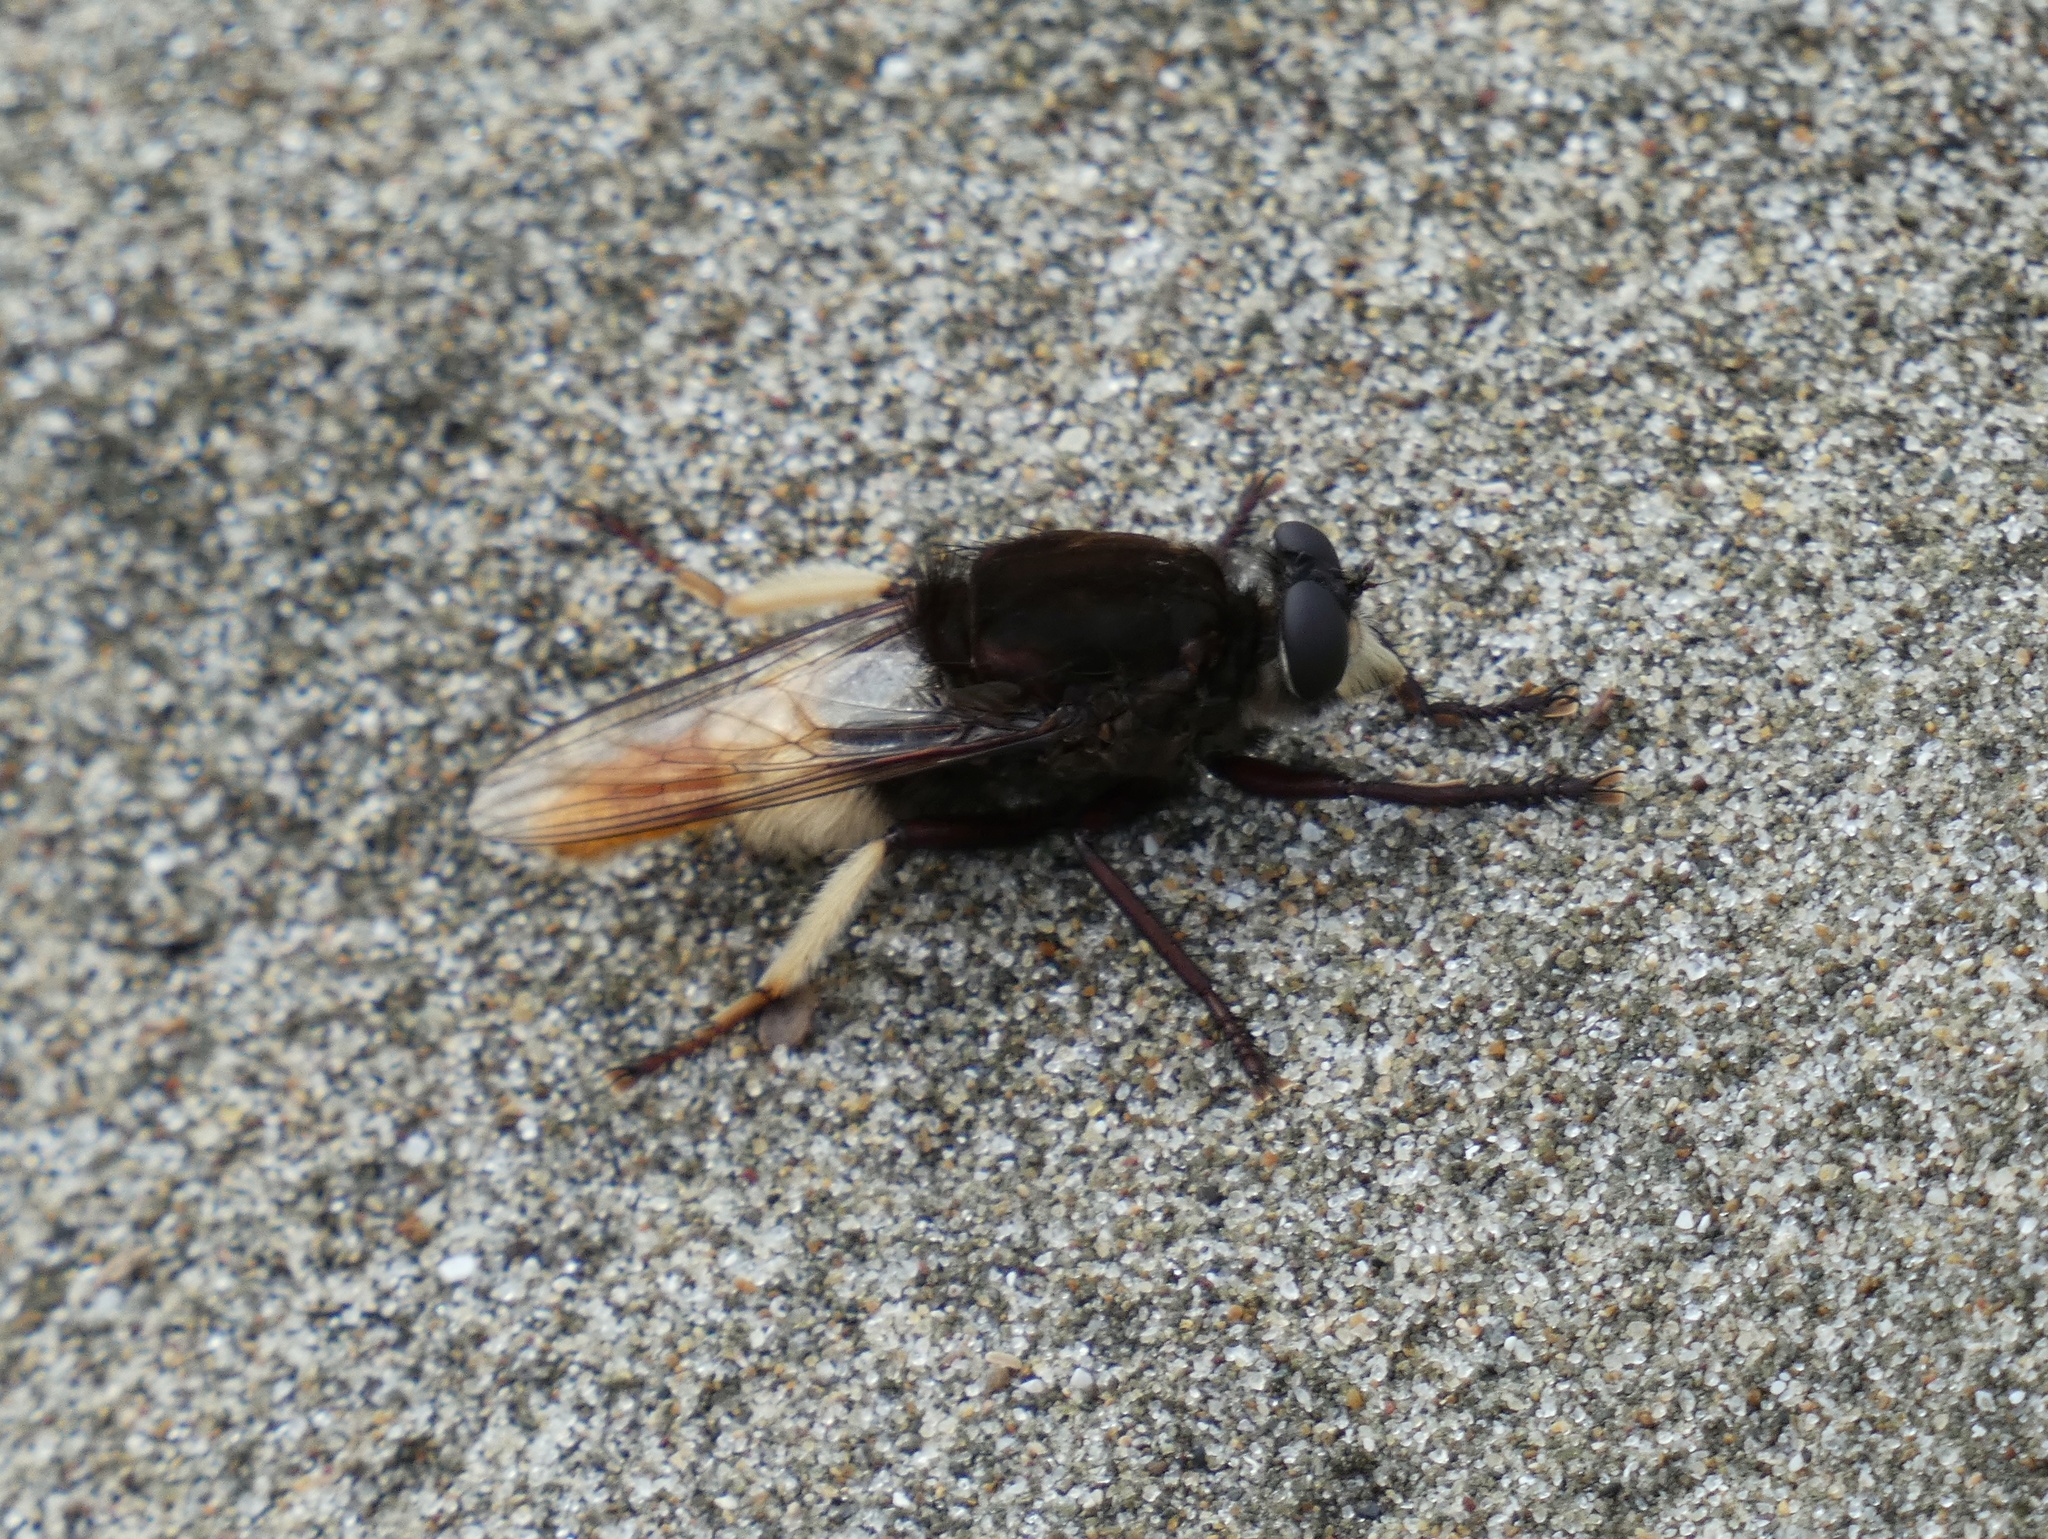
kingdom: Animalia
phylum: Arthropoda
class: Insecta
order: Diptera
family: Asilidae
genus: Eccritosia
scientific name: Eccritosia zamon
